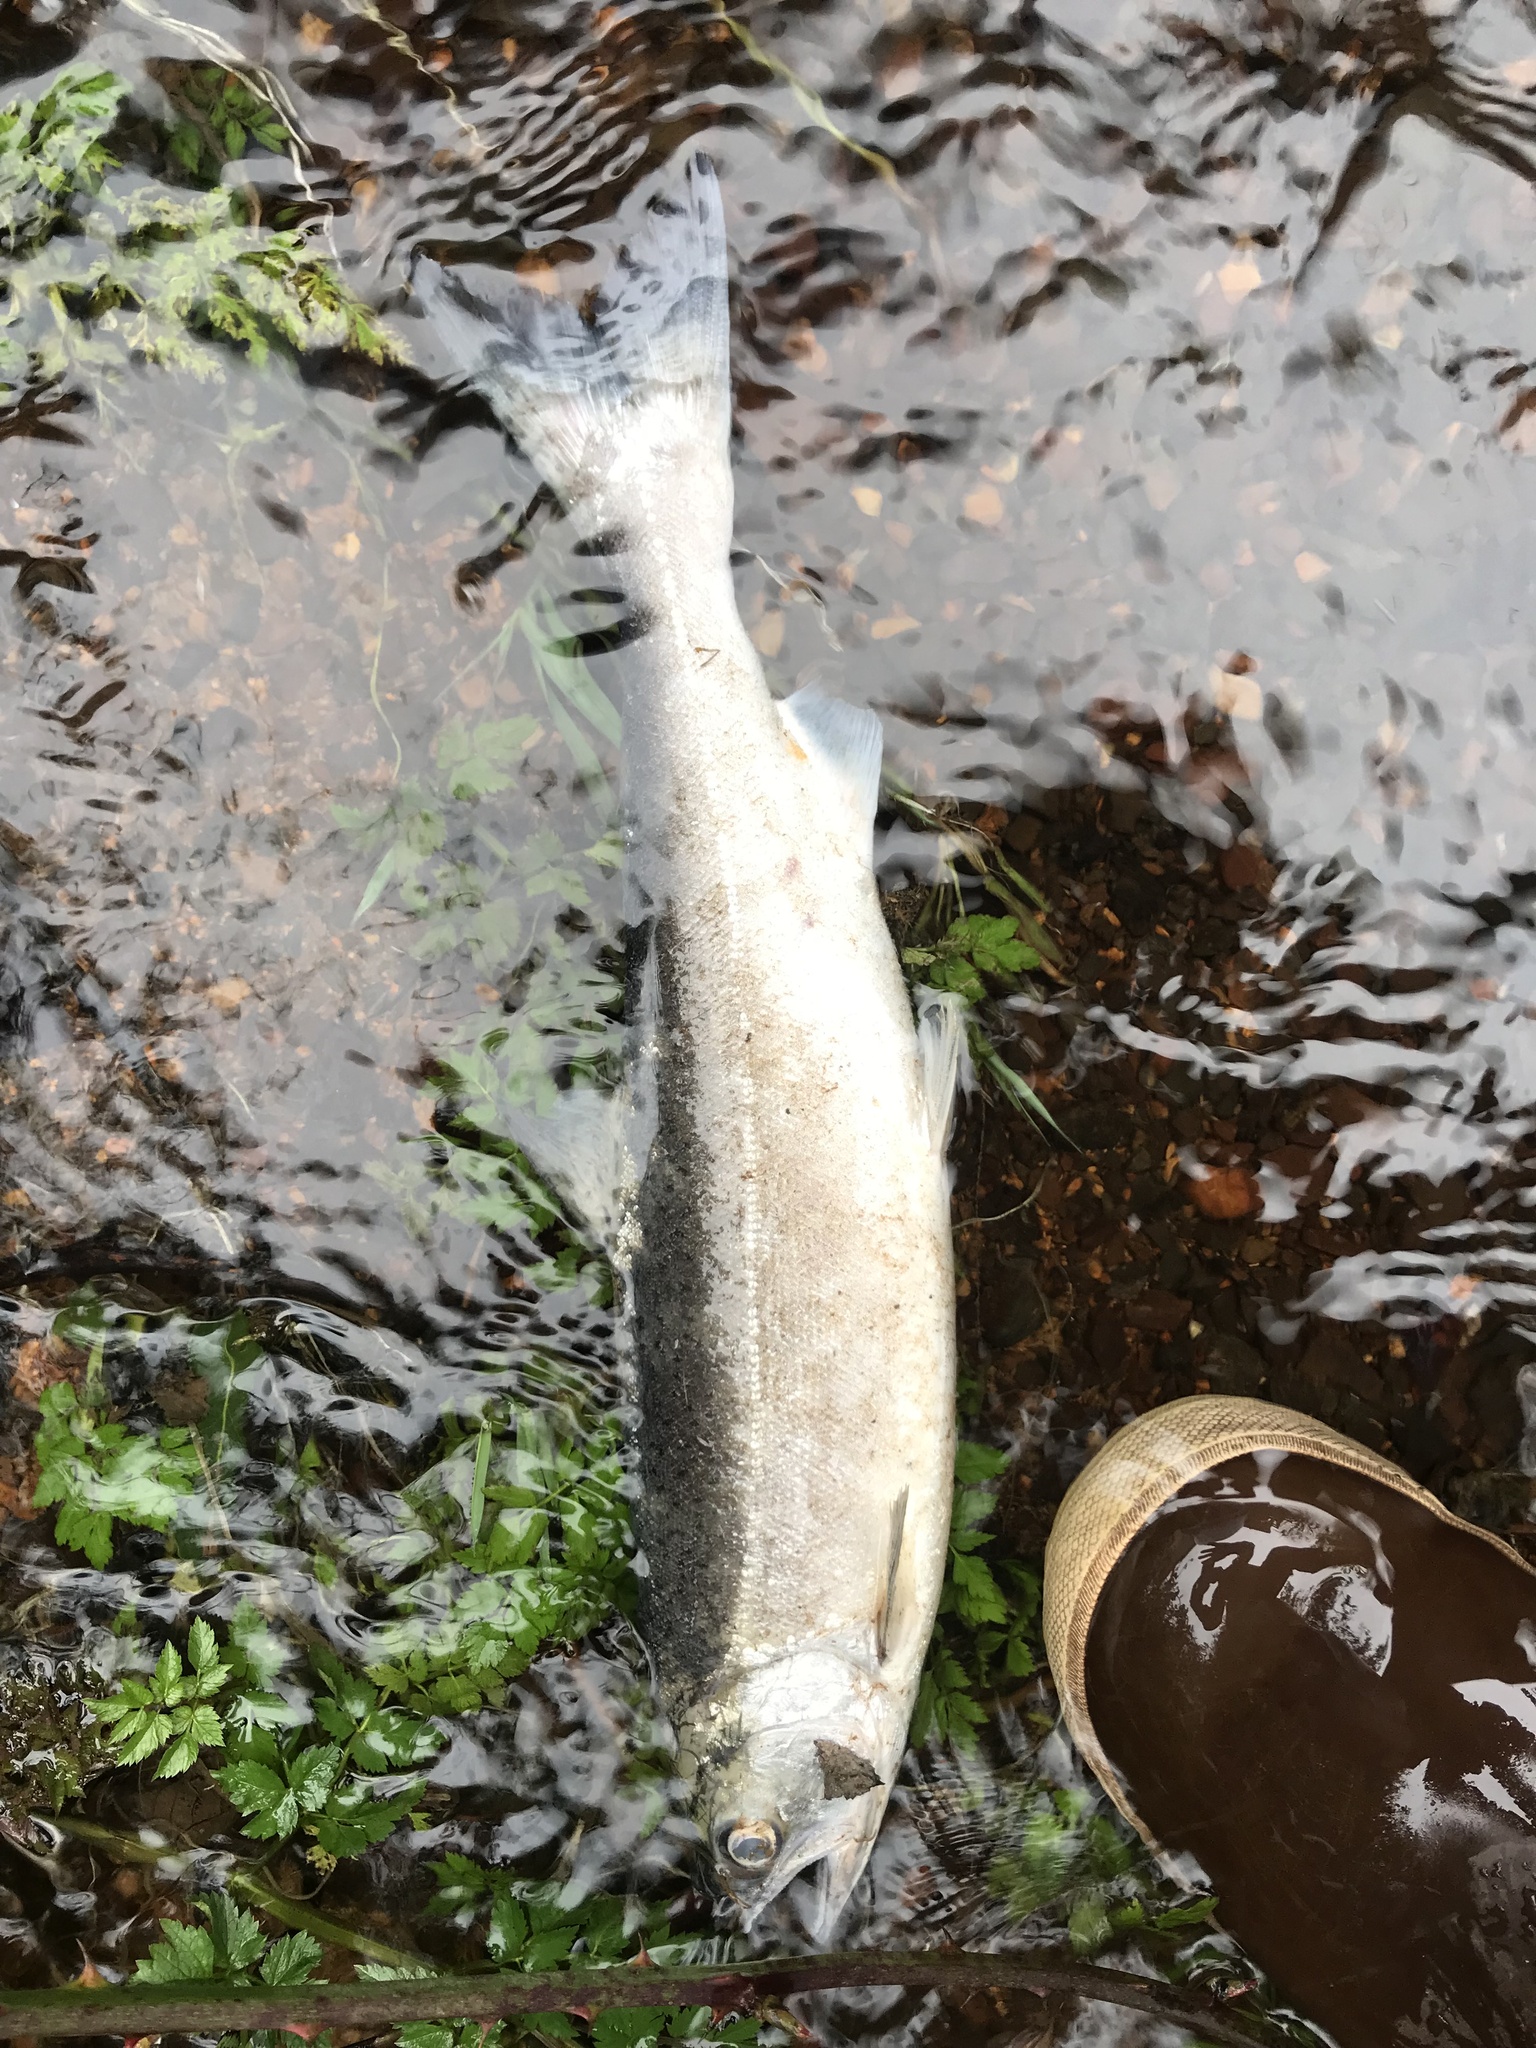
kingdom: Animalia
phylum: Chordata
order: Salmoniformes
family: Salmonidae
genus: Oncorhynchus
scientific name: Oncorhynchus kisutch
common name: Coho salmon
